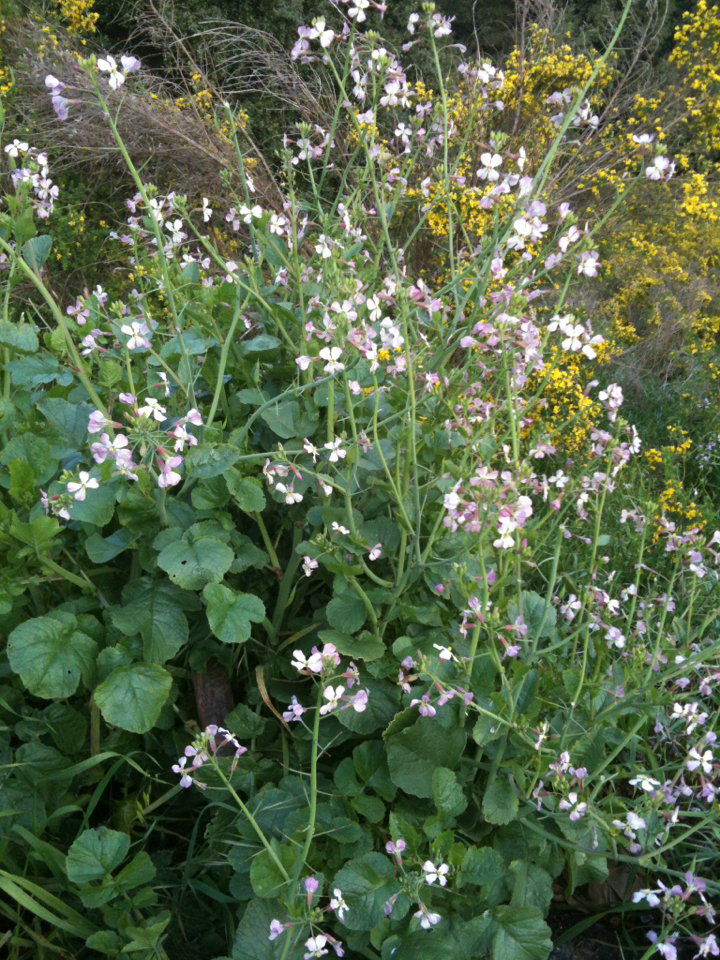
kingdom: Plantae
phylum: Tracheophyta
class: Magnoliopsida
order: Brassicales
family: Brassicaceae
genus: Raphanus
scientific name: Raphanus sativus
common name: Cultivated radish
